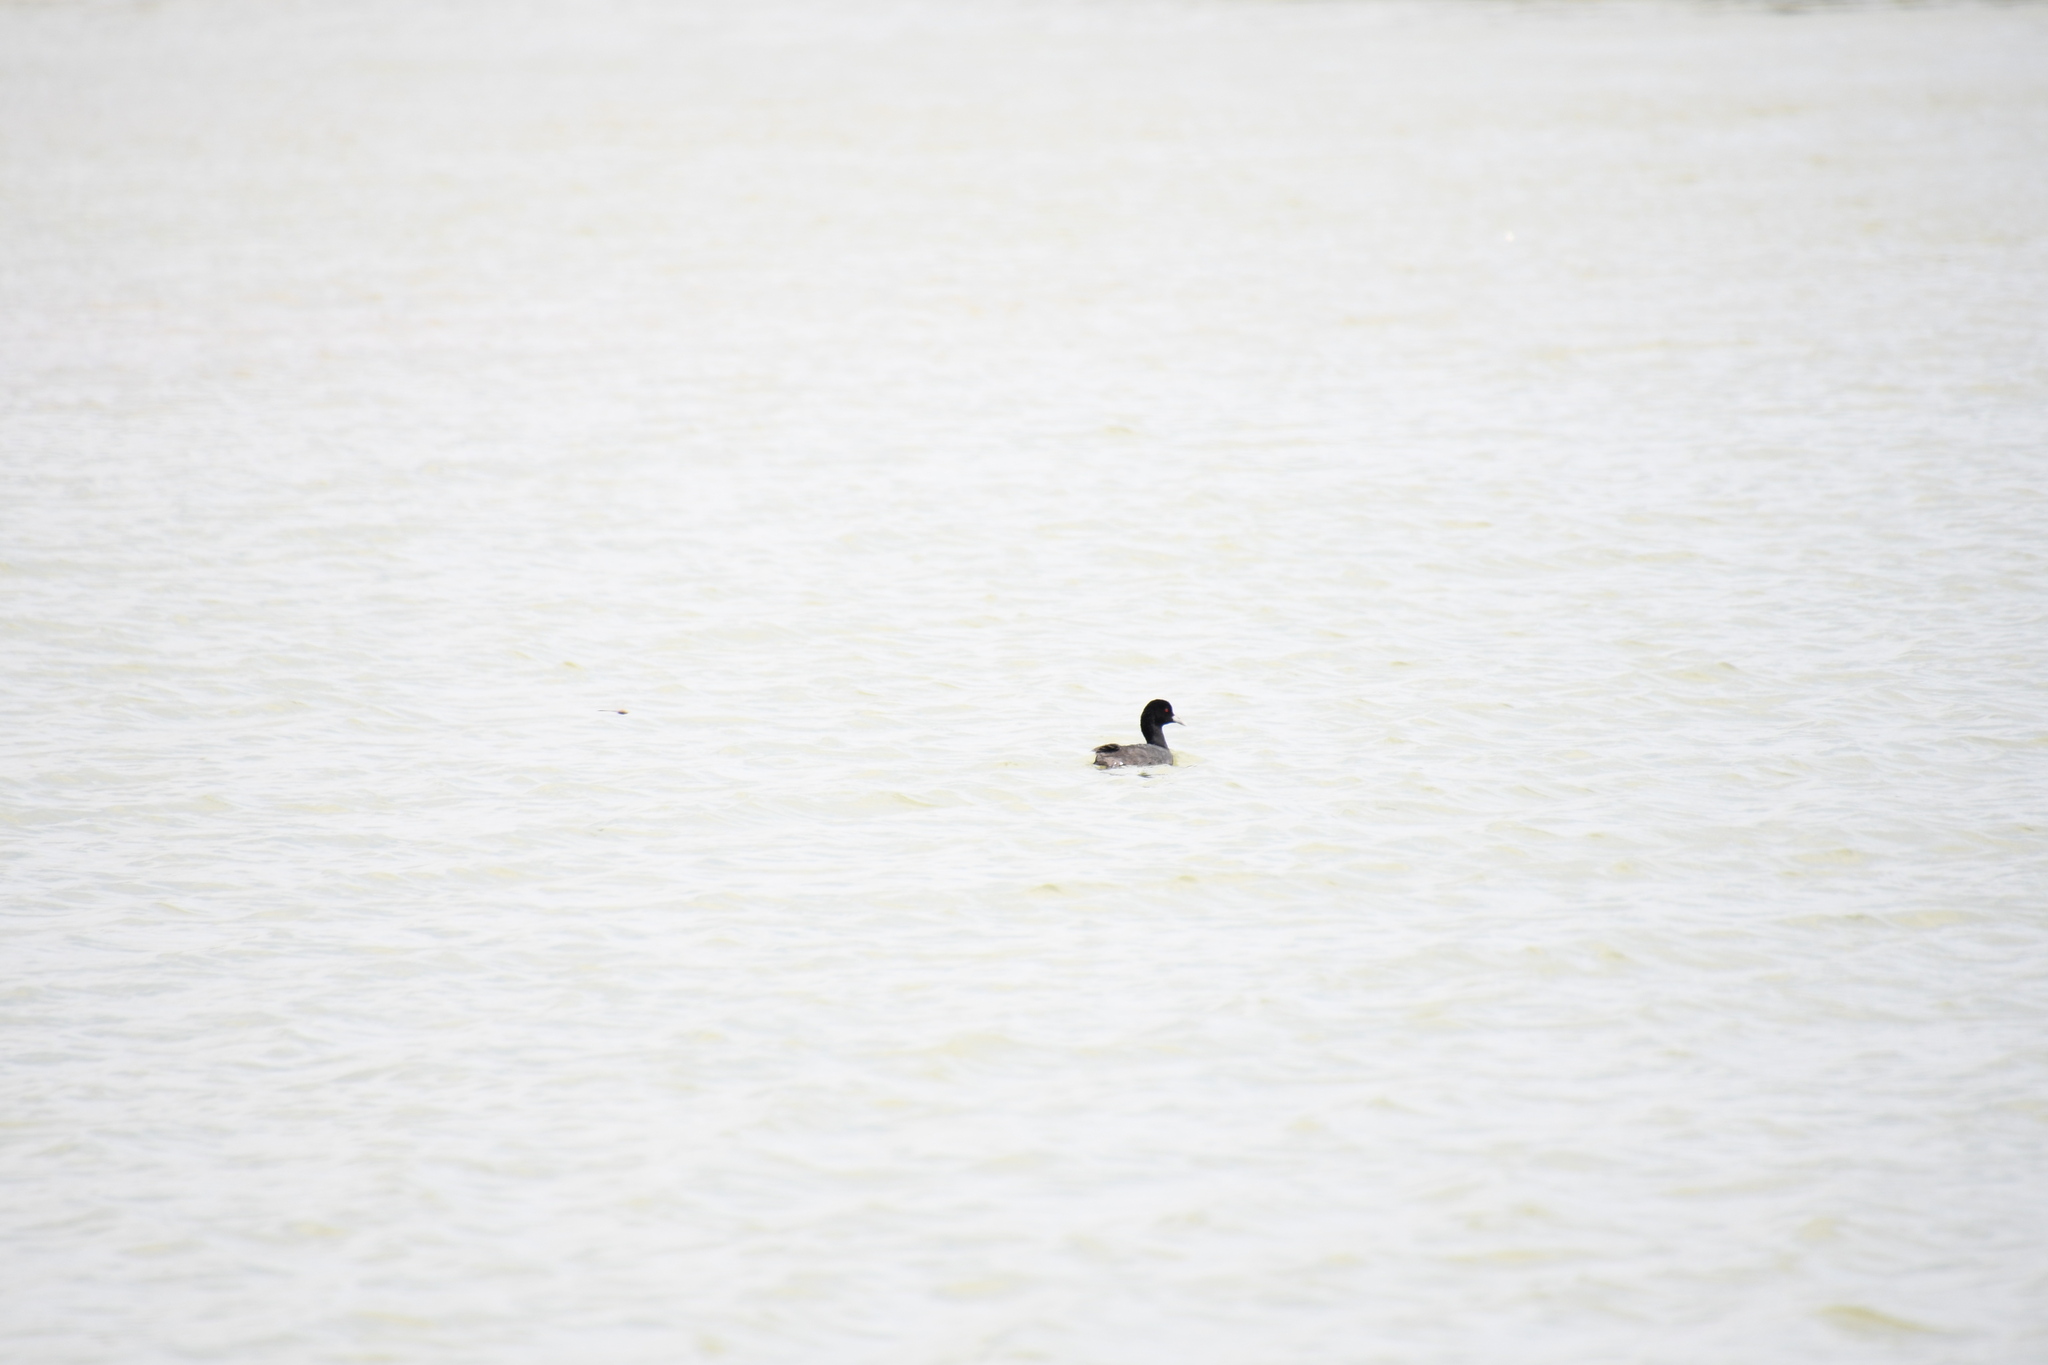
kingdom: Animalia
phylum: Chordata
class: Aves
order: Gruiformes
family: Rallidae
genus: Fulica
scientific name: Fulica atra
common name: Eurasian coot
